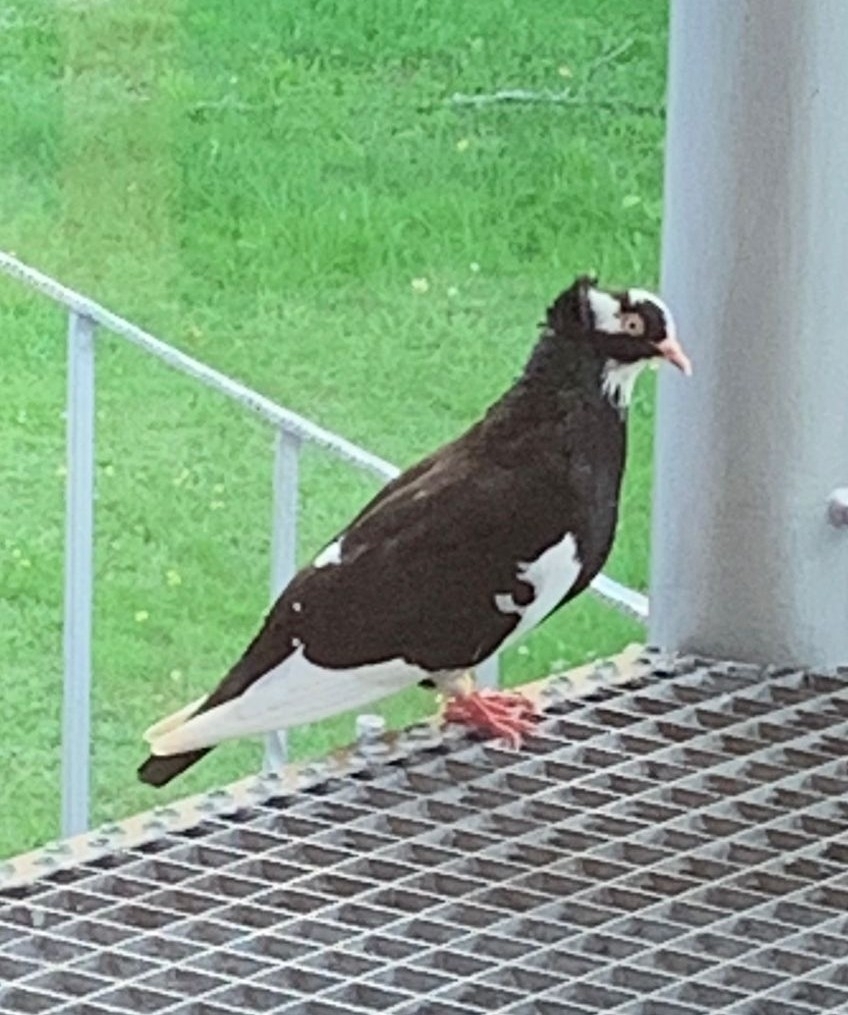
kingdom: Animalia
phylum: Chordata
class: Aves
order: Columbiformes
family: Columbidae
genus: Columba
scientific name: Columba livia
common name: Rock pigeon
